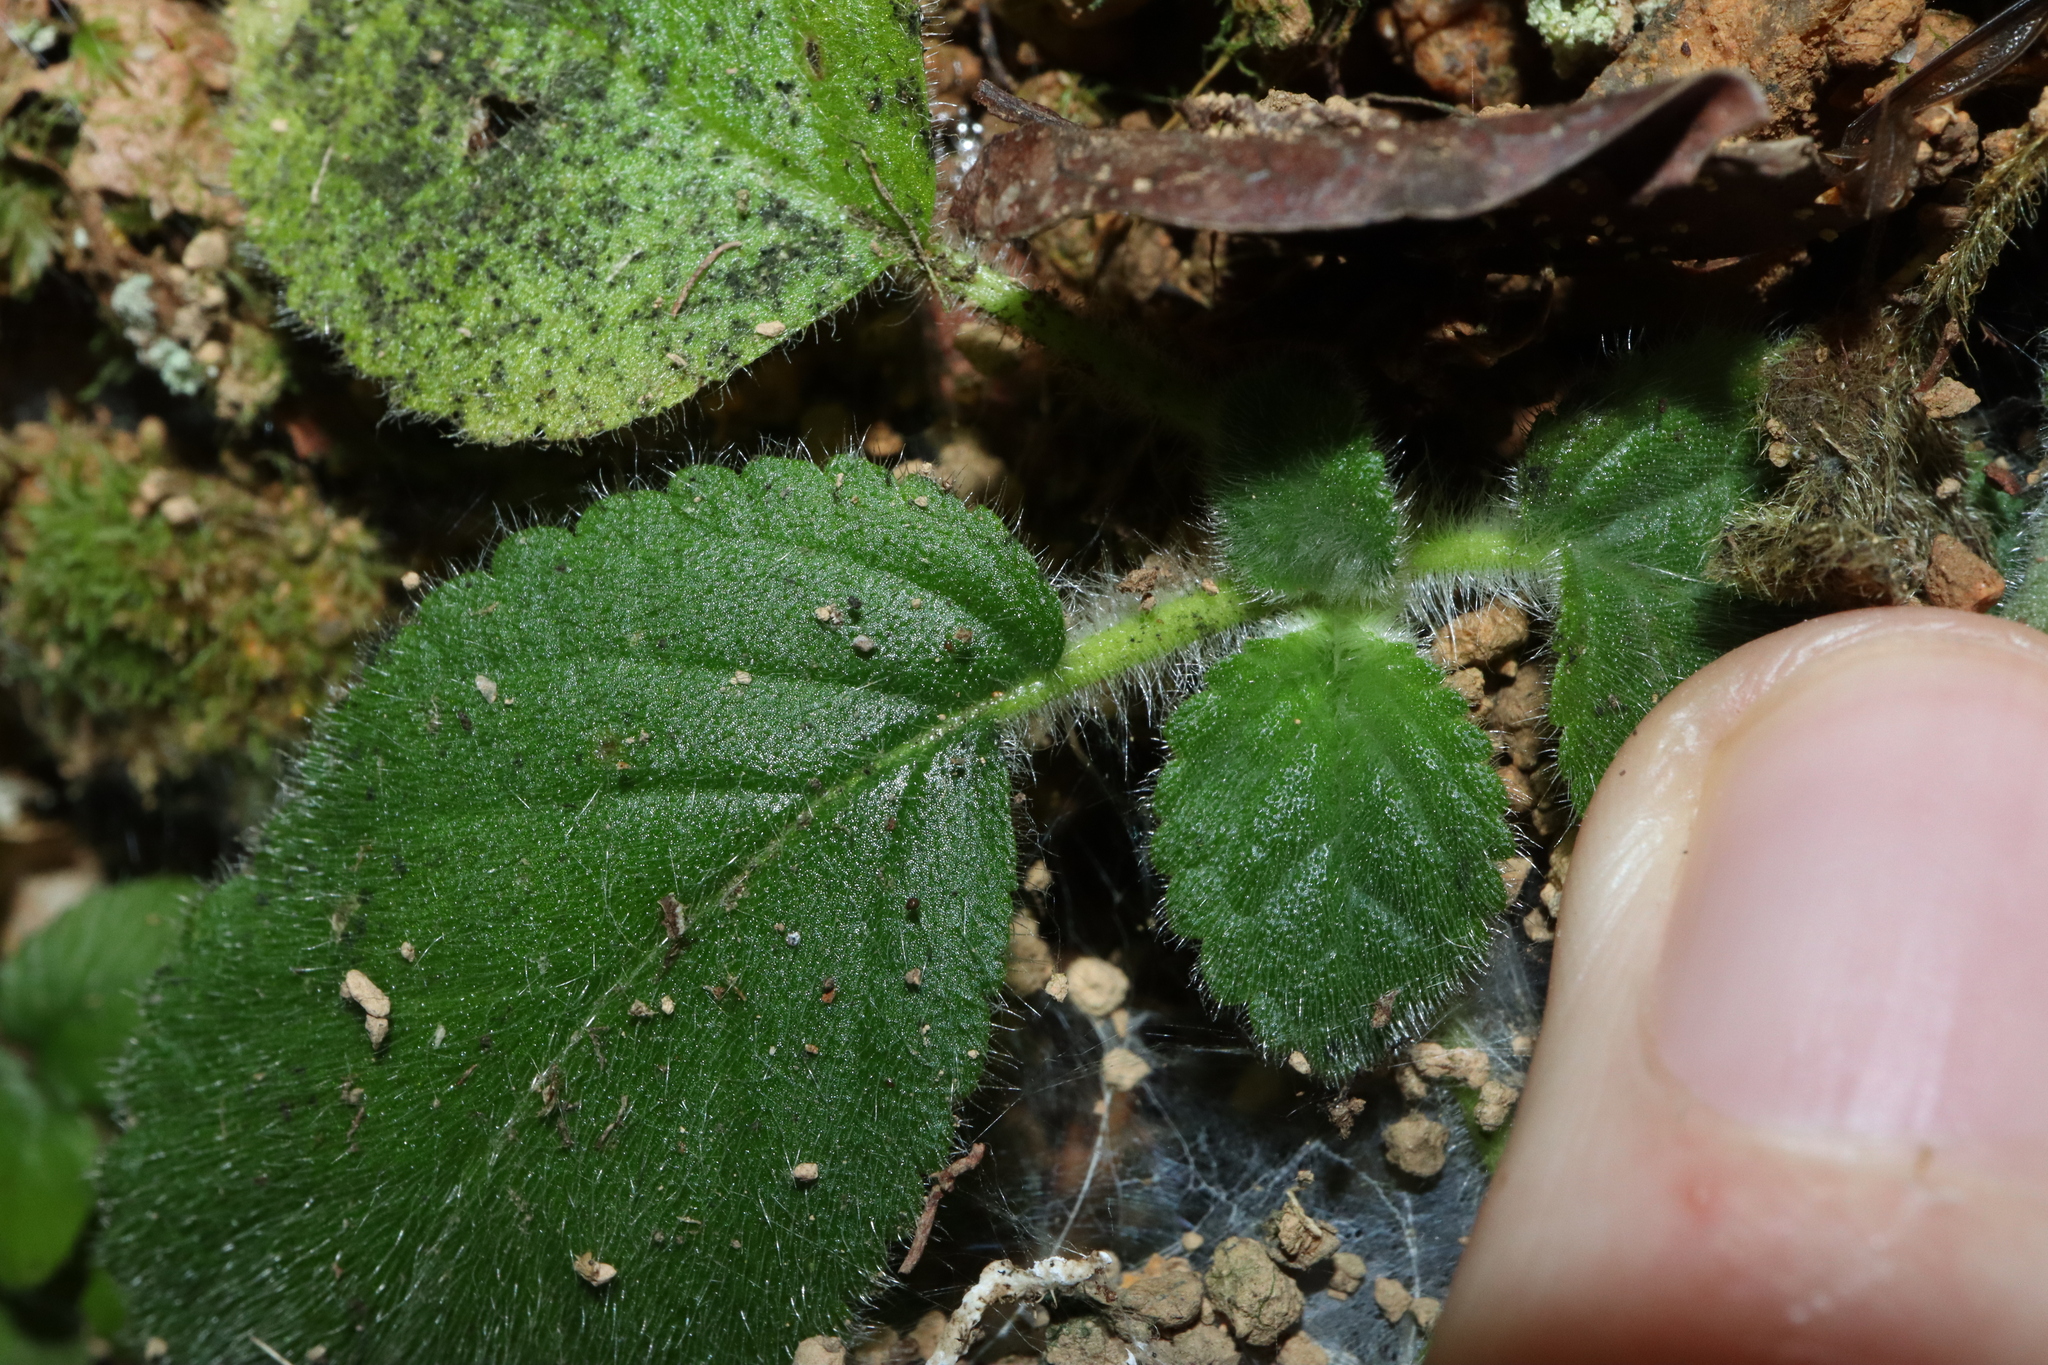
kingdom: Plantae
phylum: Tracheophyta
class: Magnoliopsida
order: Lamiales
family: Gesneriaceae
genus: Boea
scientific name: Boea hygroscopica
